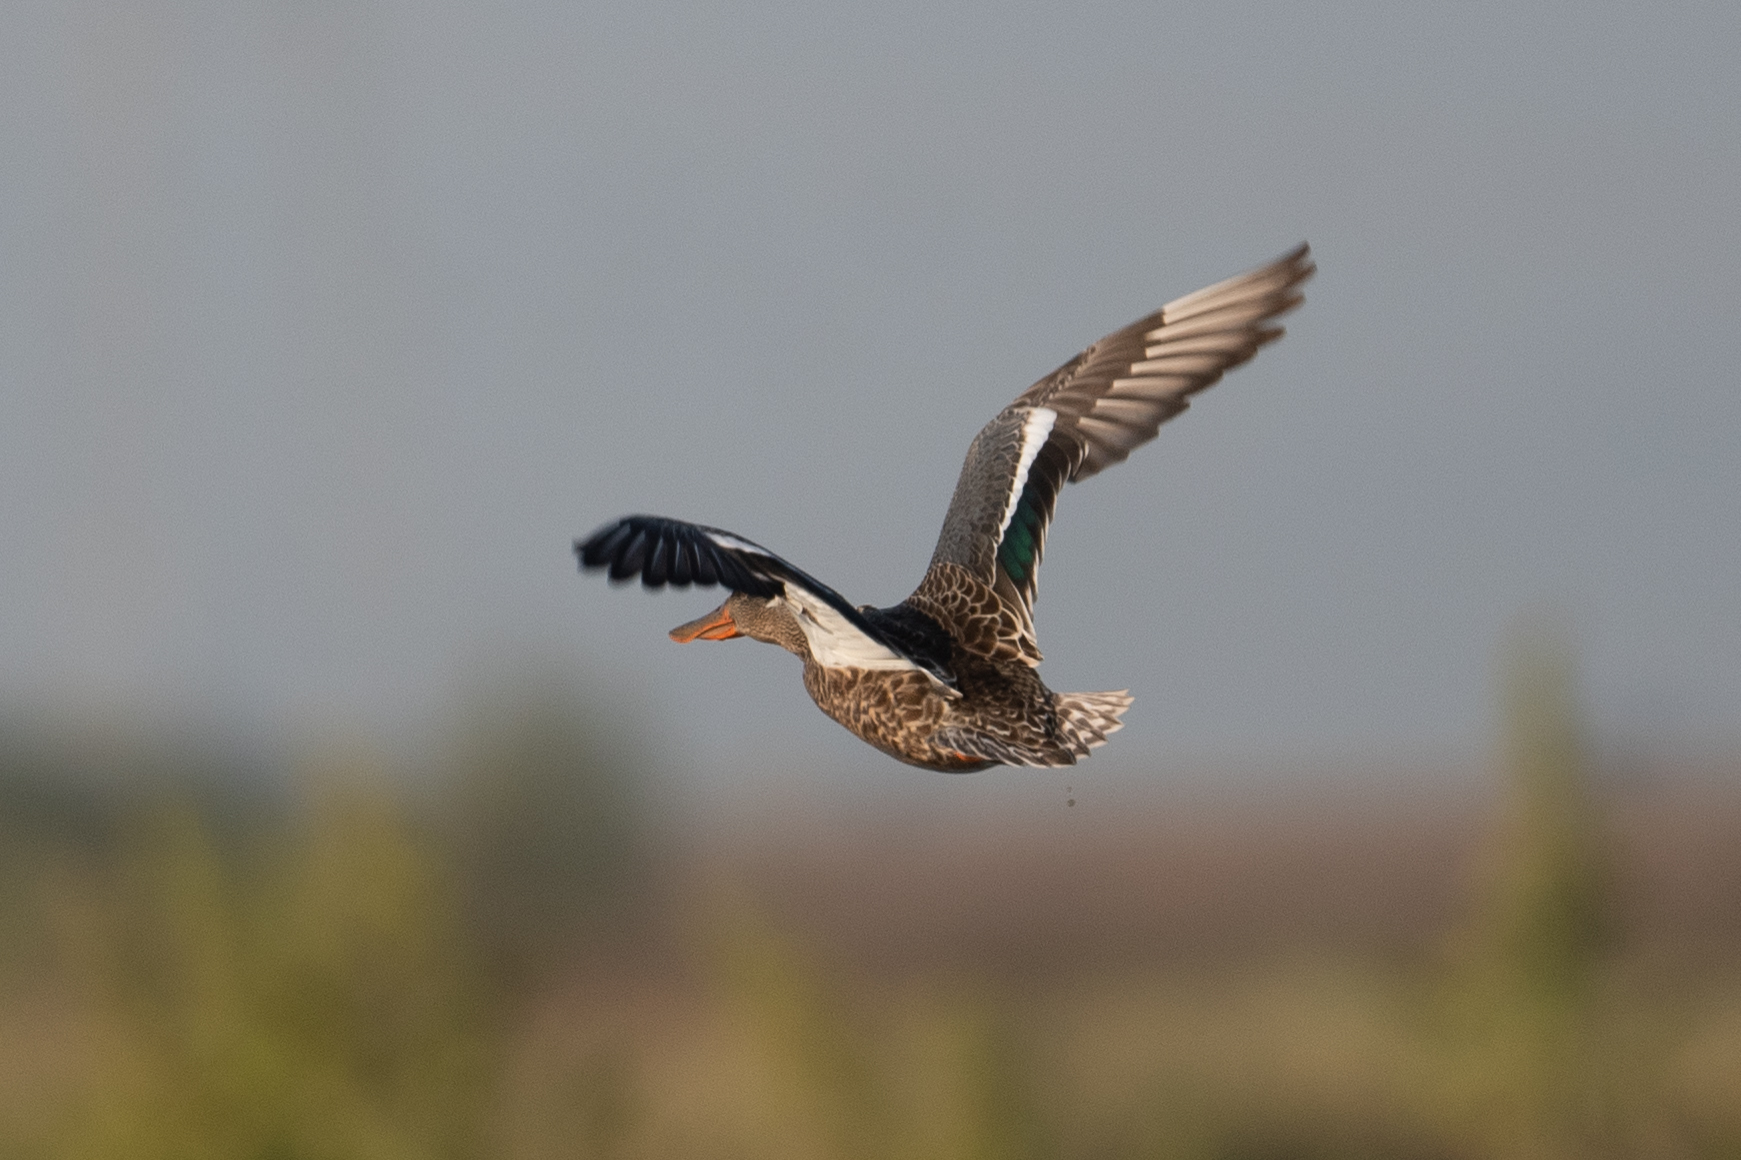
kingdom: Animalia
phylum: Chordata
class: Aves
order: Anseriformes
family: Anatidae
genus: Spatula
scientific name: Spatula clypeata
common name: Northern shoveler
